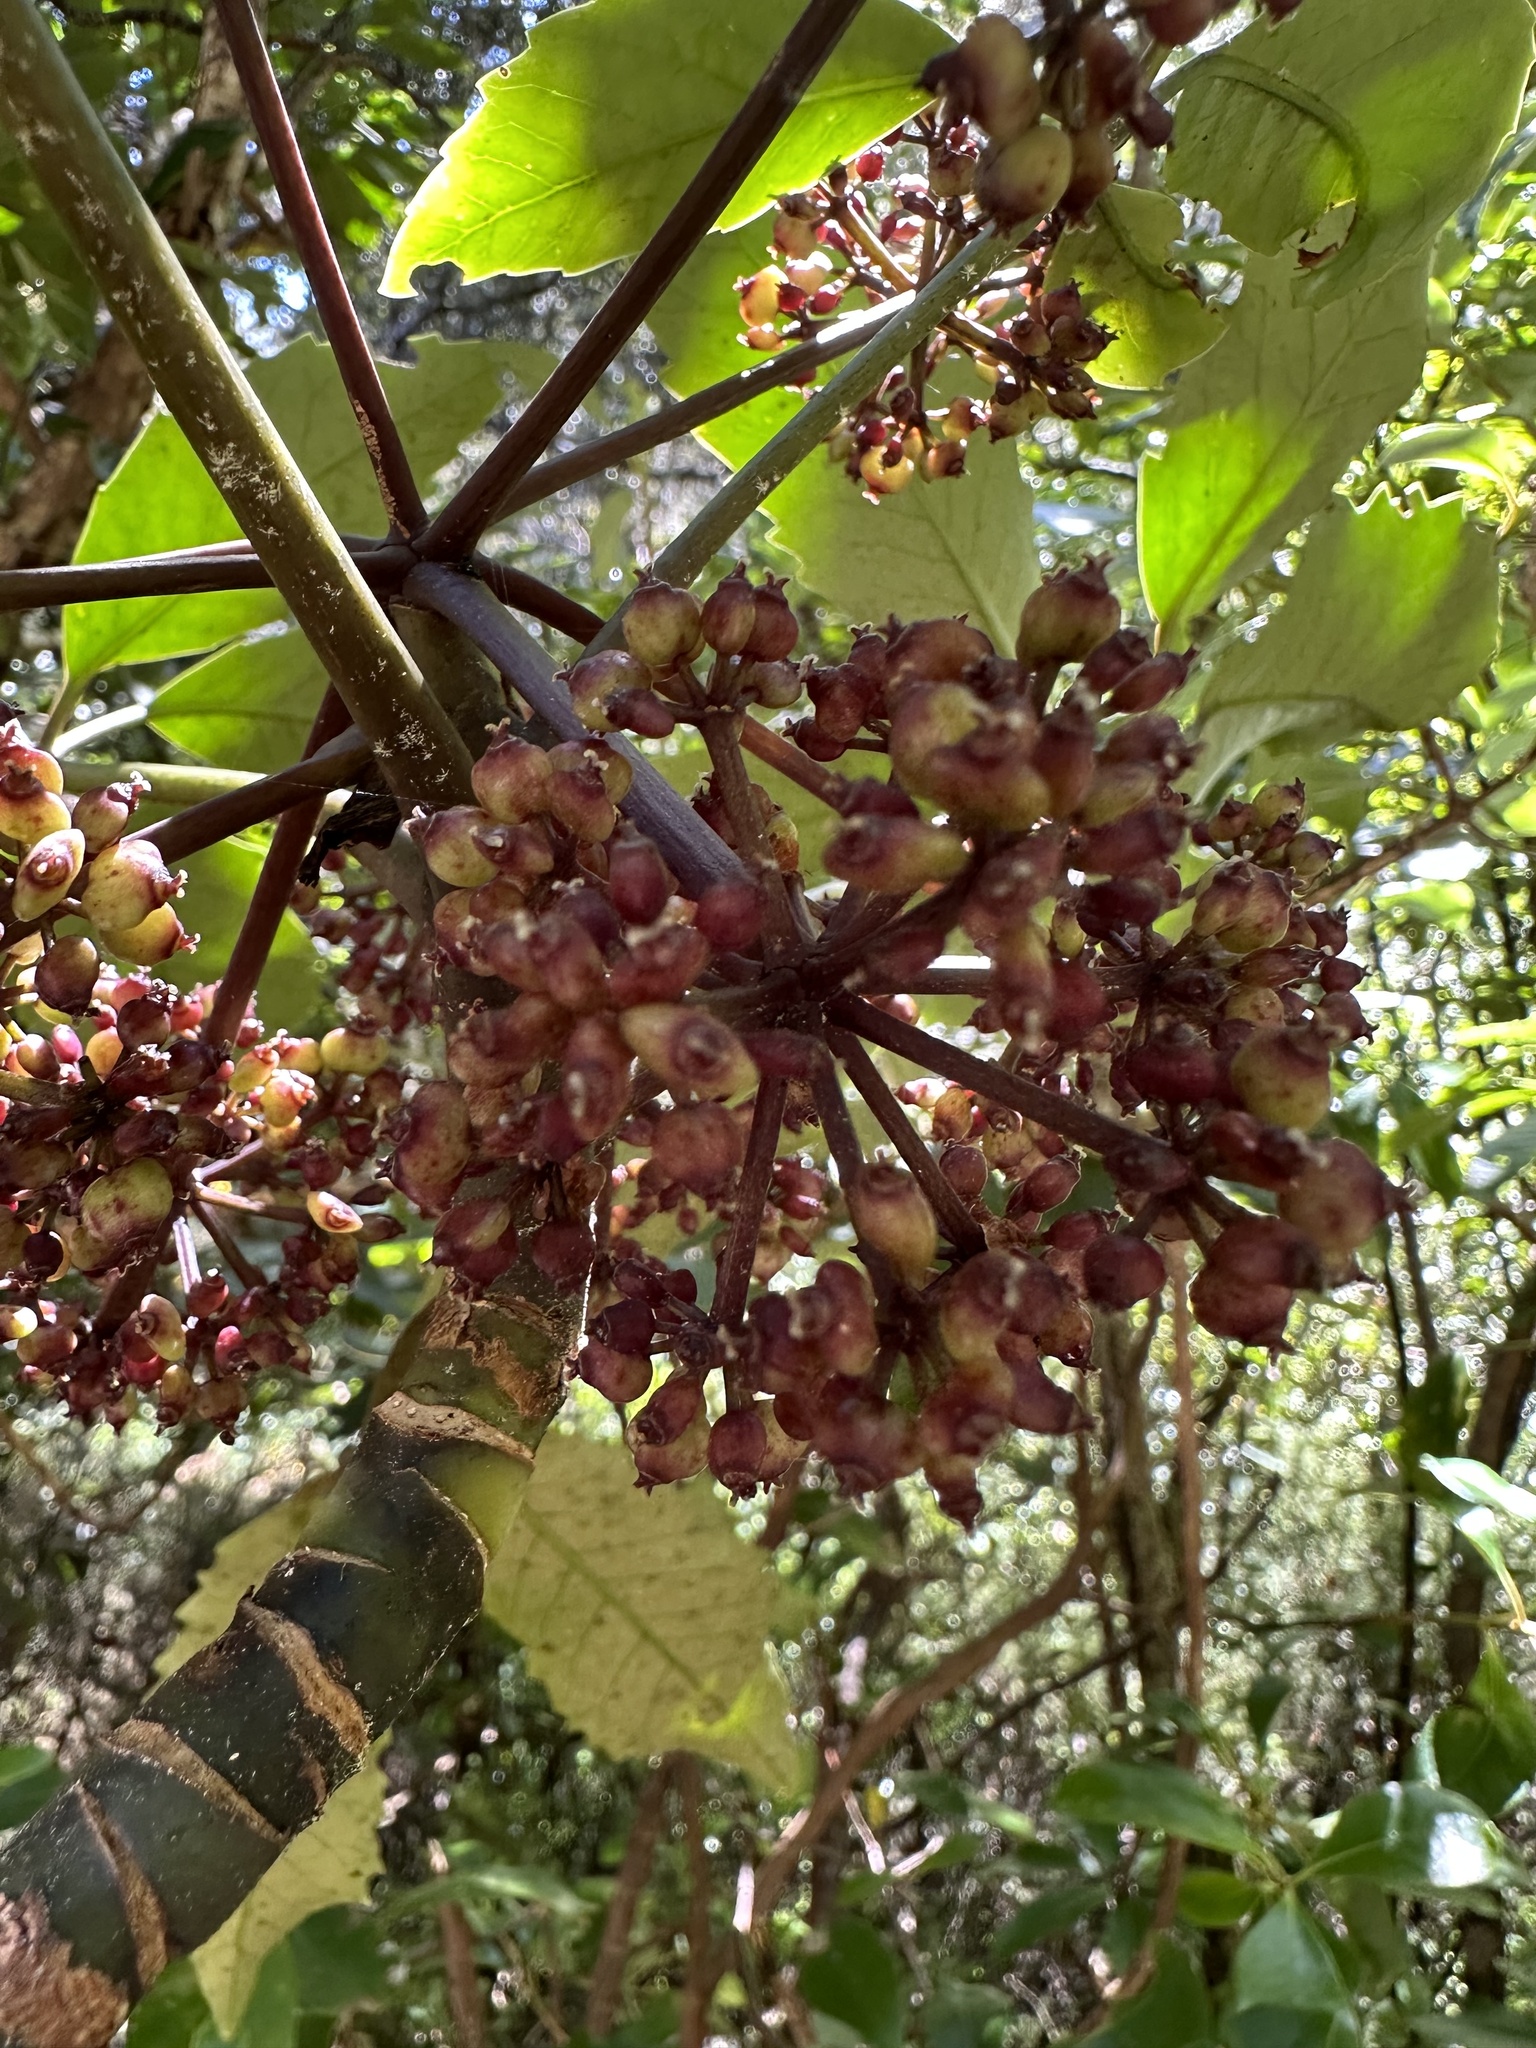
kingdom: Plantae
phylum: Tracheophyta
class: Magnoliopsida
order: Apiales
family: Araliaceae
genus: Neopanax
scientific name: Neopanax arboreus
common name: Five-fingers
